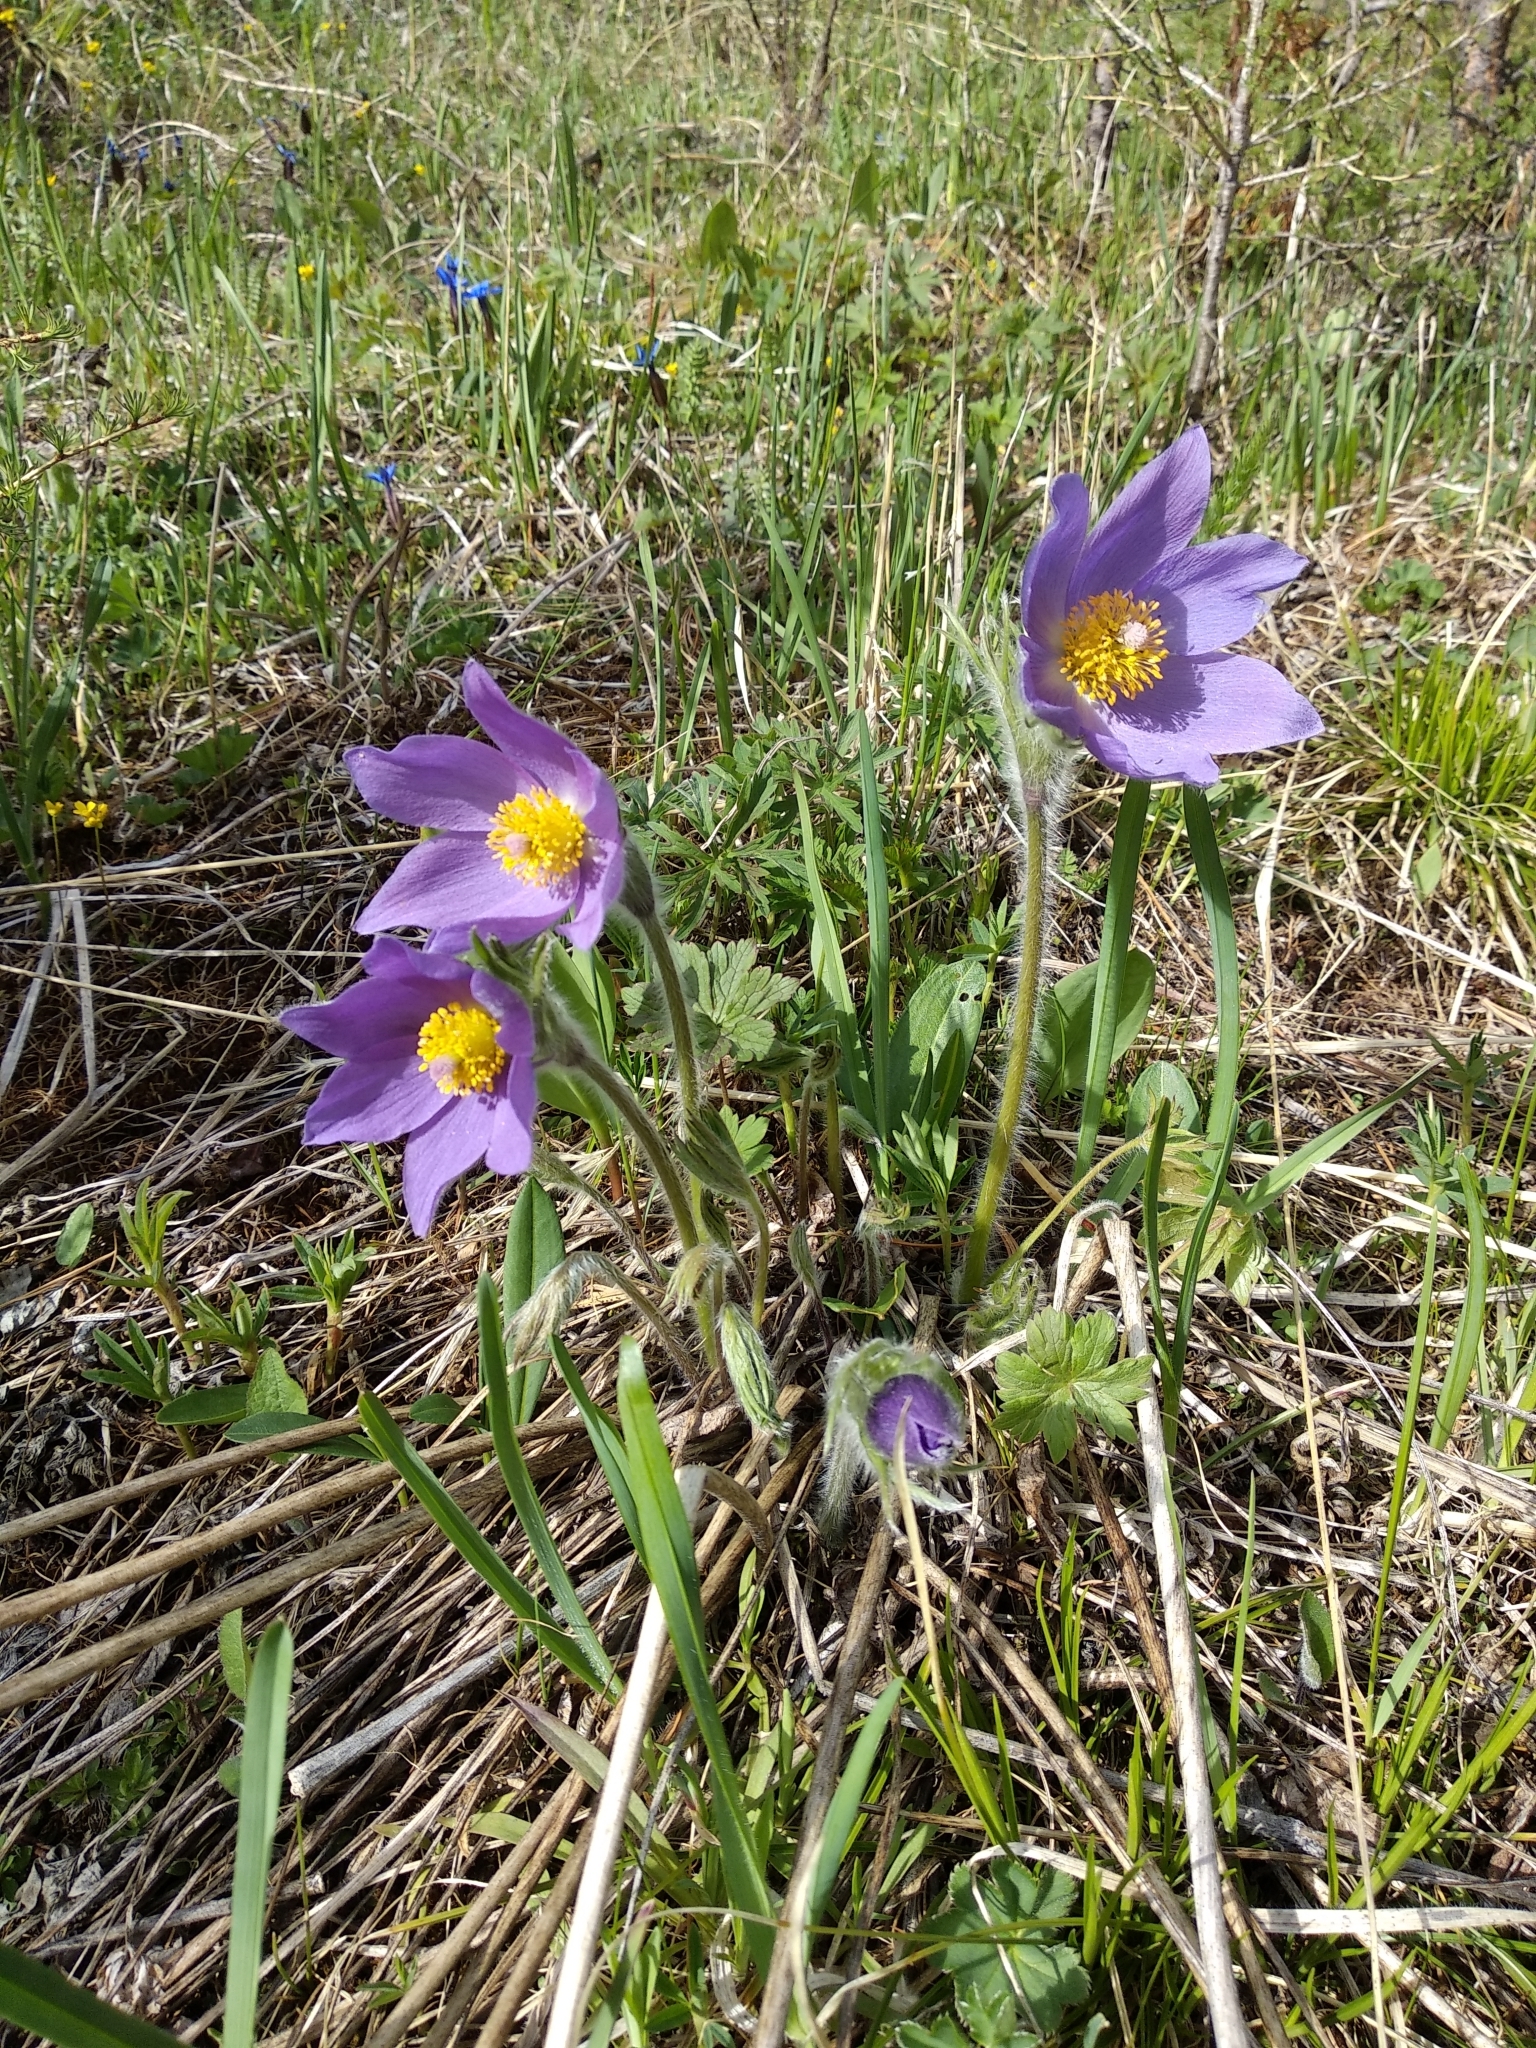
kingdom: Plantae
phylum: Tracheophyta
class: Magnoliopsida
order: Ranunculales
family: Ranunculaceae
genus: Pulsatilla
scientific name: Pulsatilla patens
